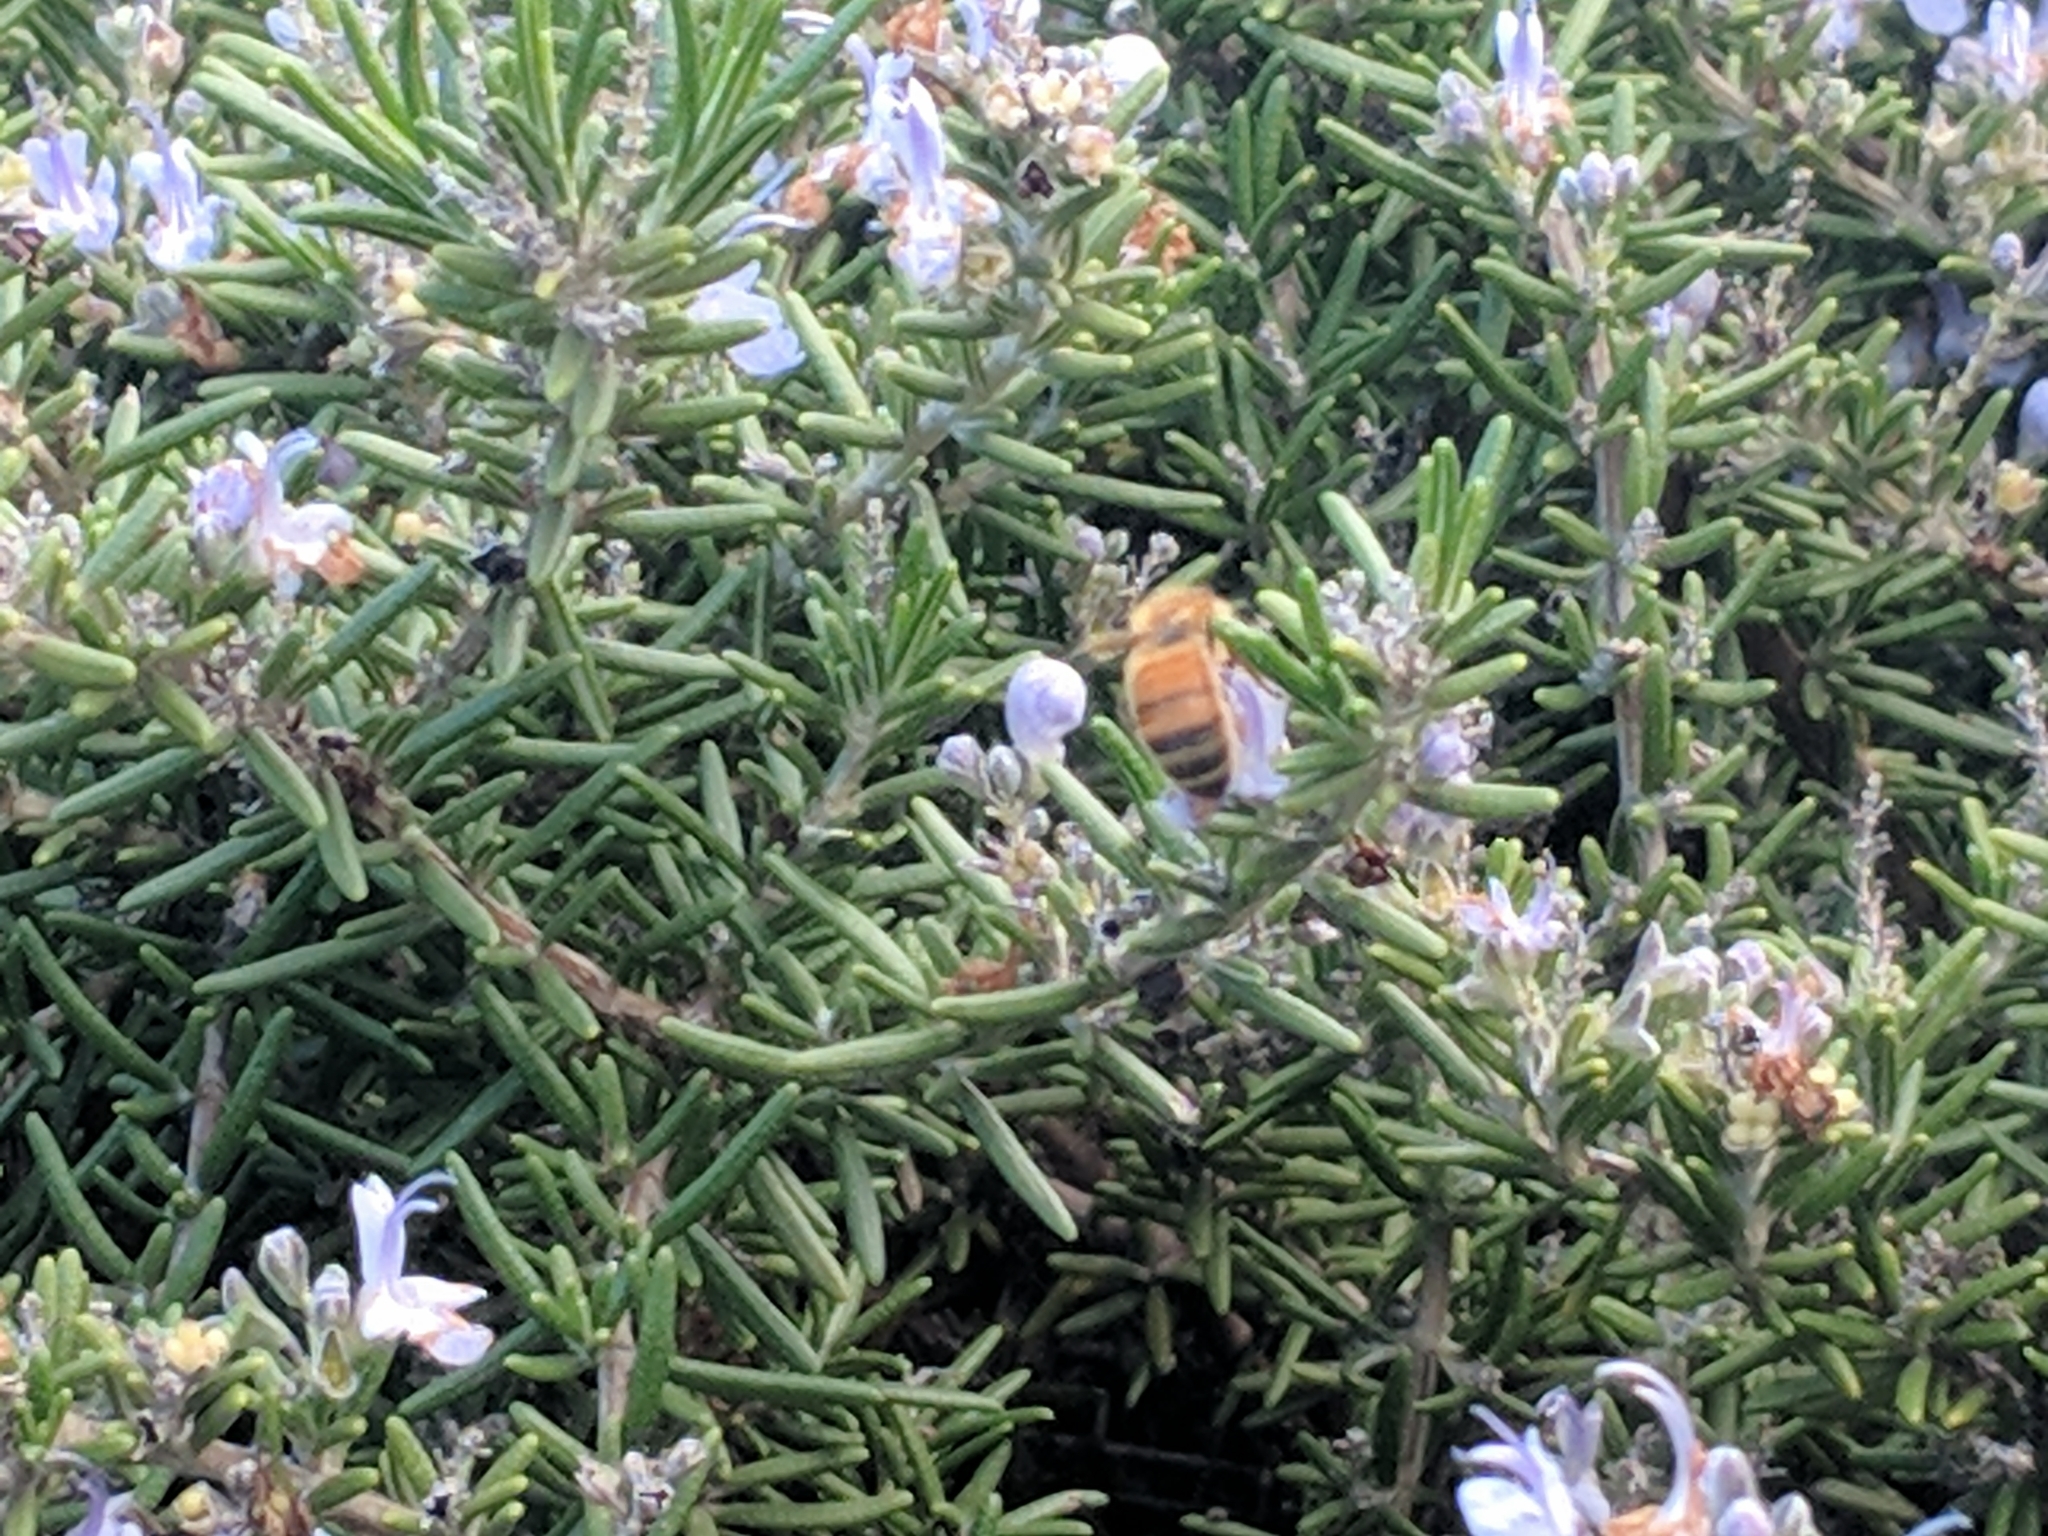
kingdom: Animalia
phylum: Arthropoda
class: Insecta
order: Hymenoptera
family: Apidae
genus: Apis
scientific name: Apis mellifera
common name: Honey bee
